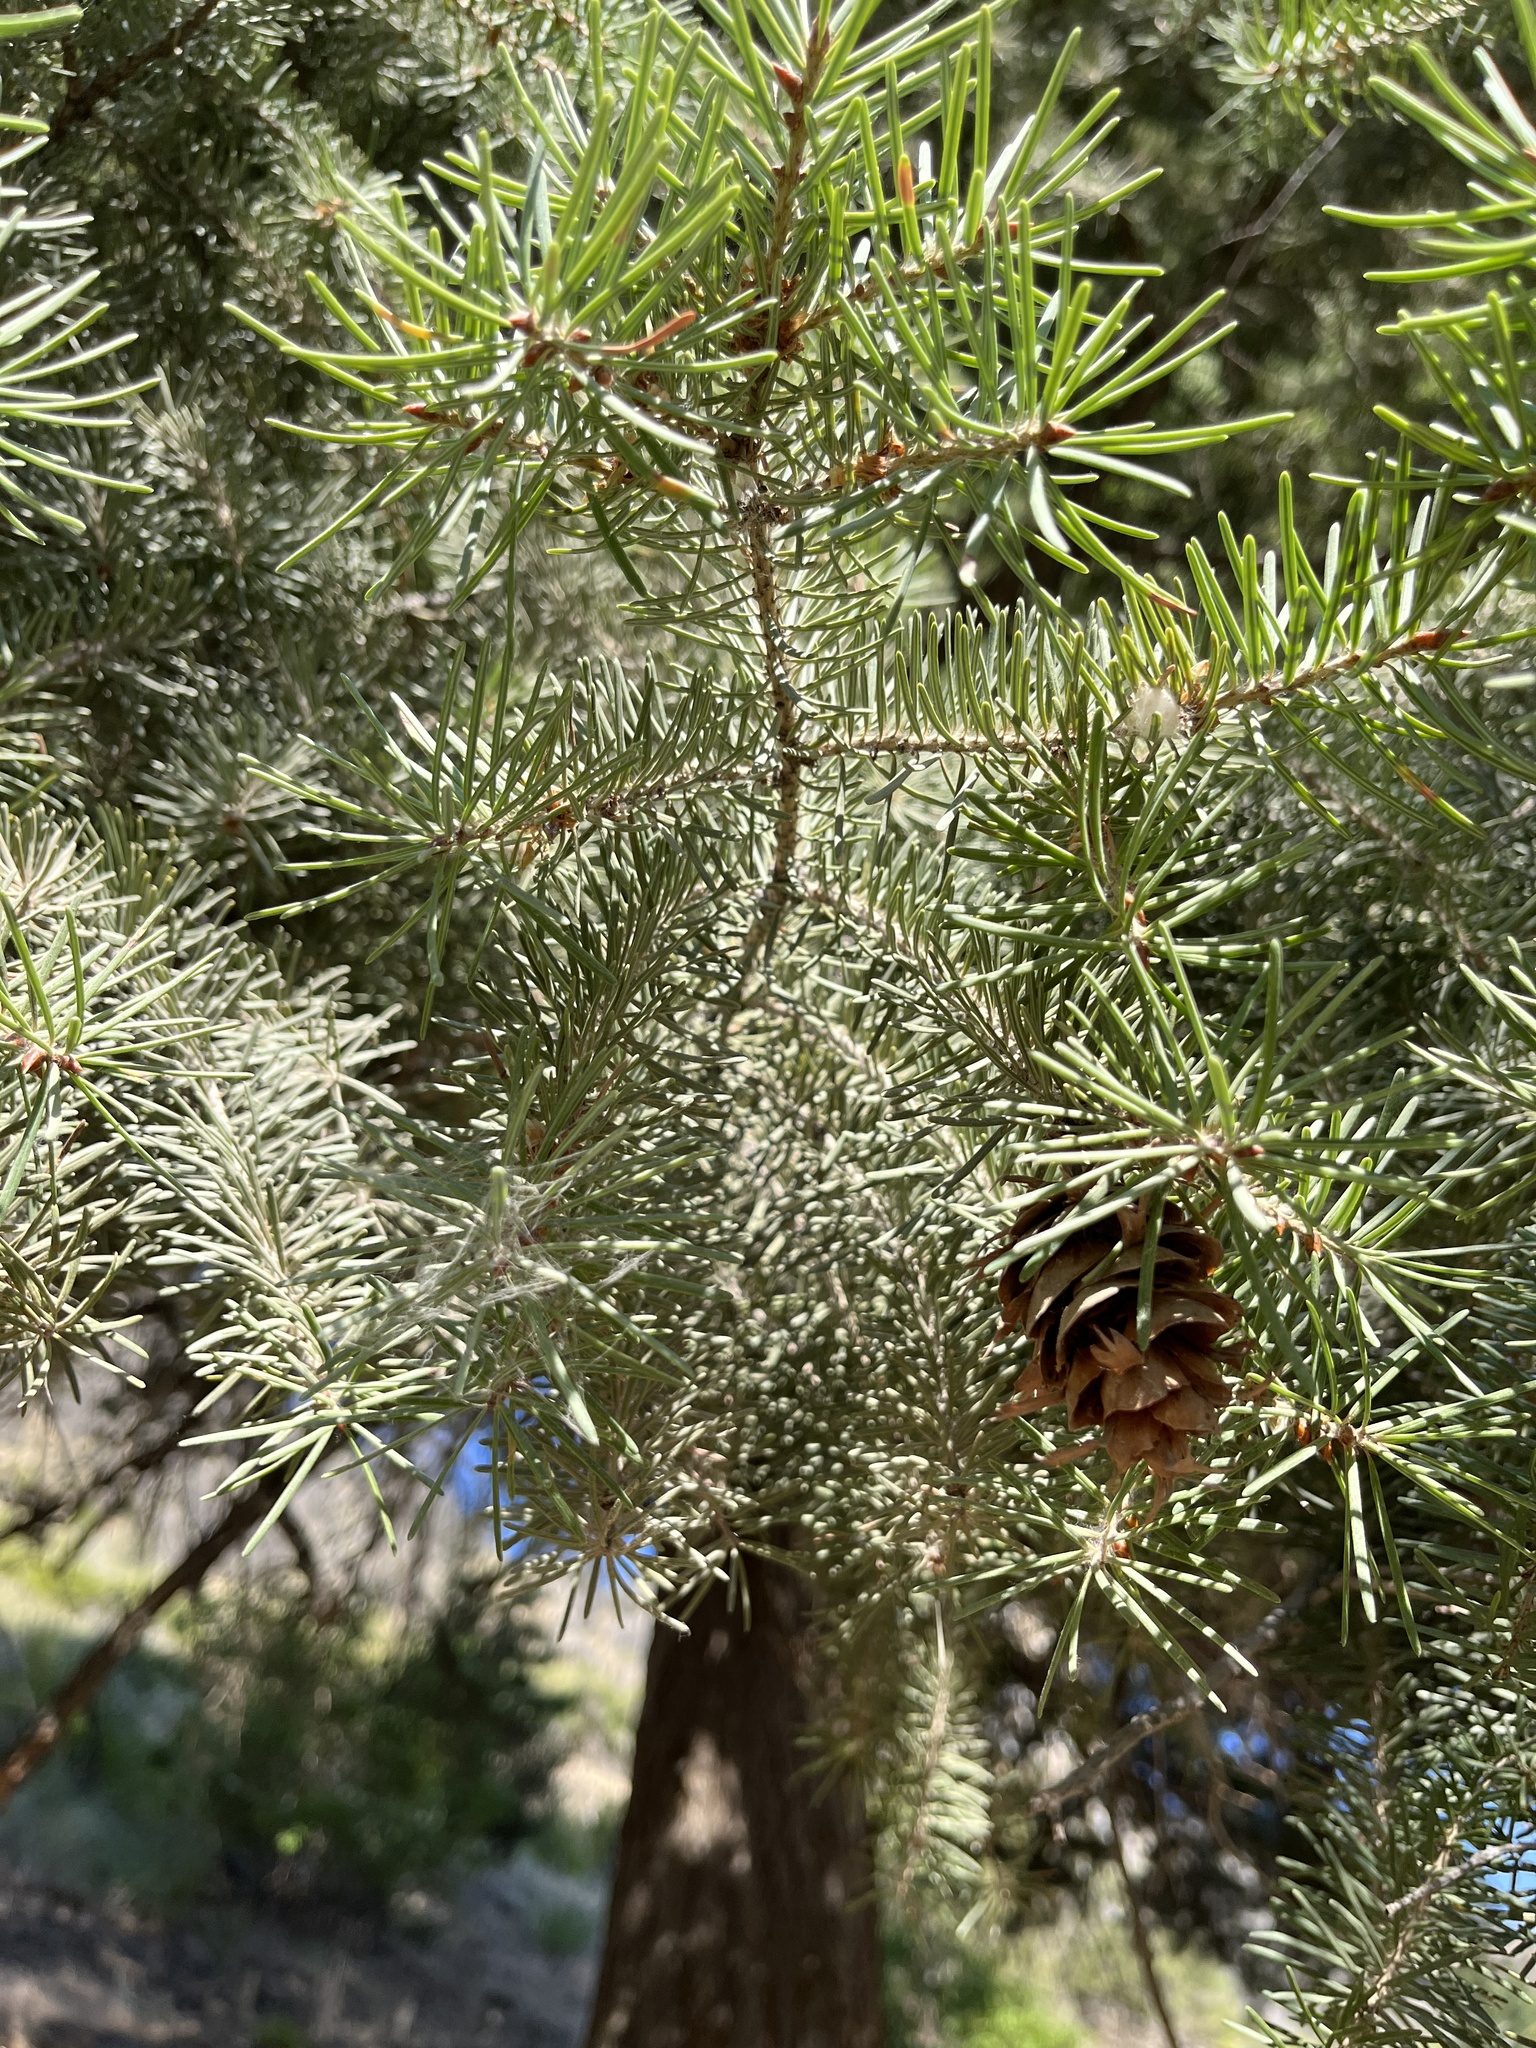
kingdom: Plantae
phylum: Tracheophyta
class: Pinopsida
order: Pinales
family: Pinaceae
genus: Pseudotsuga
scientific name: Pseudotsuga menziesii
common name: Douglas fir
